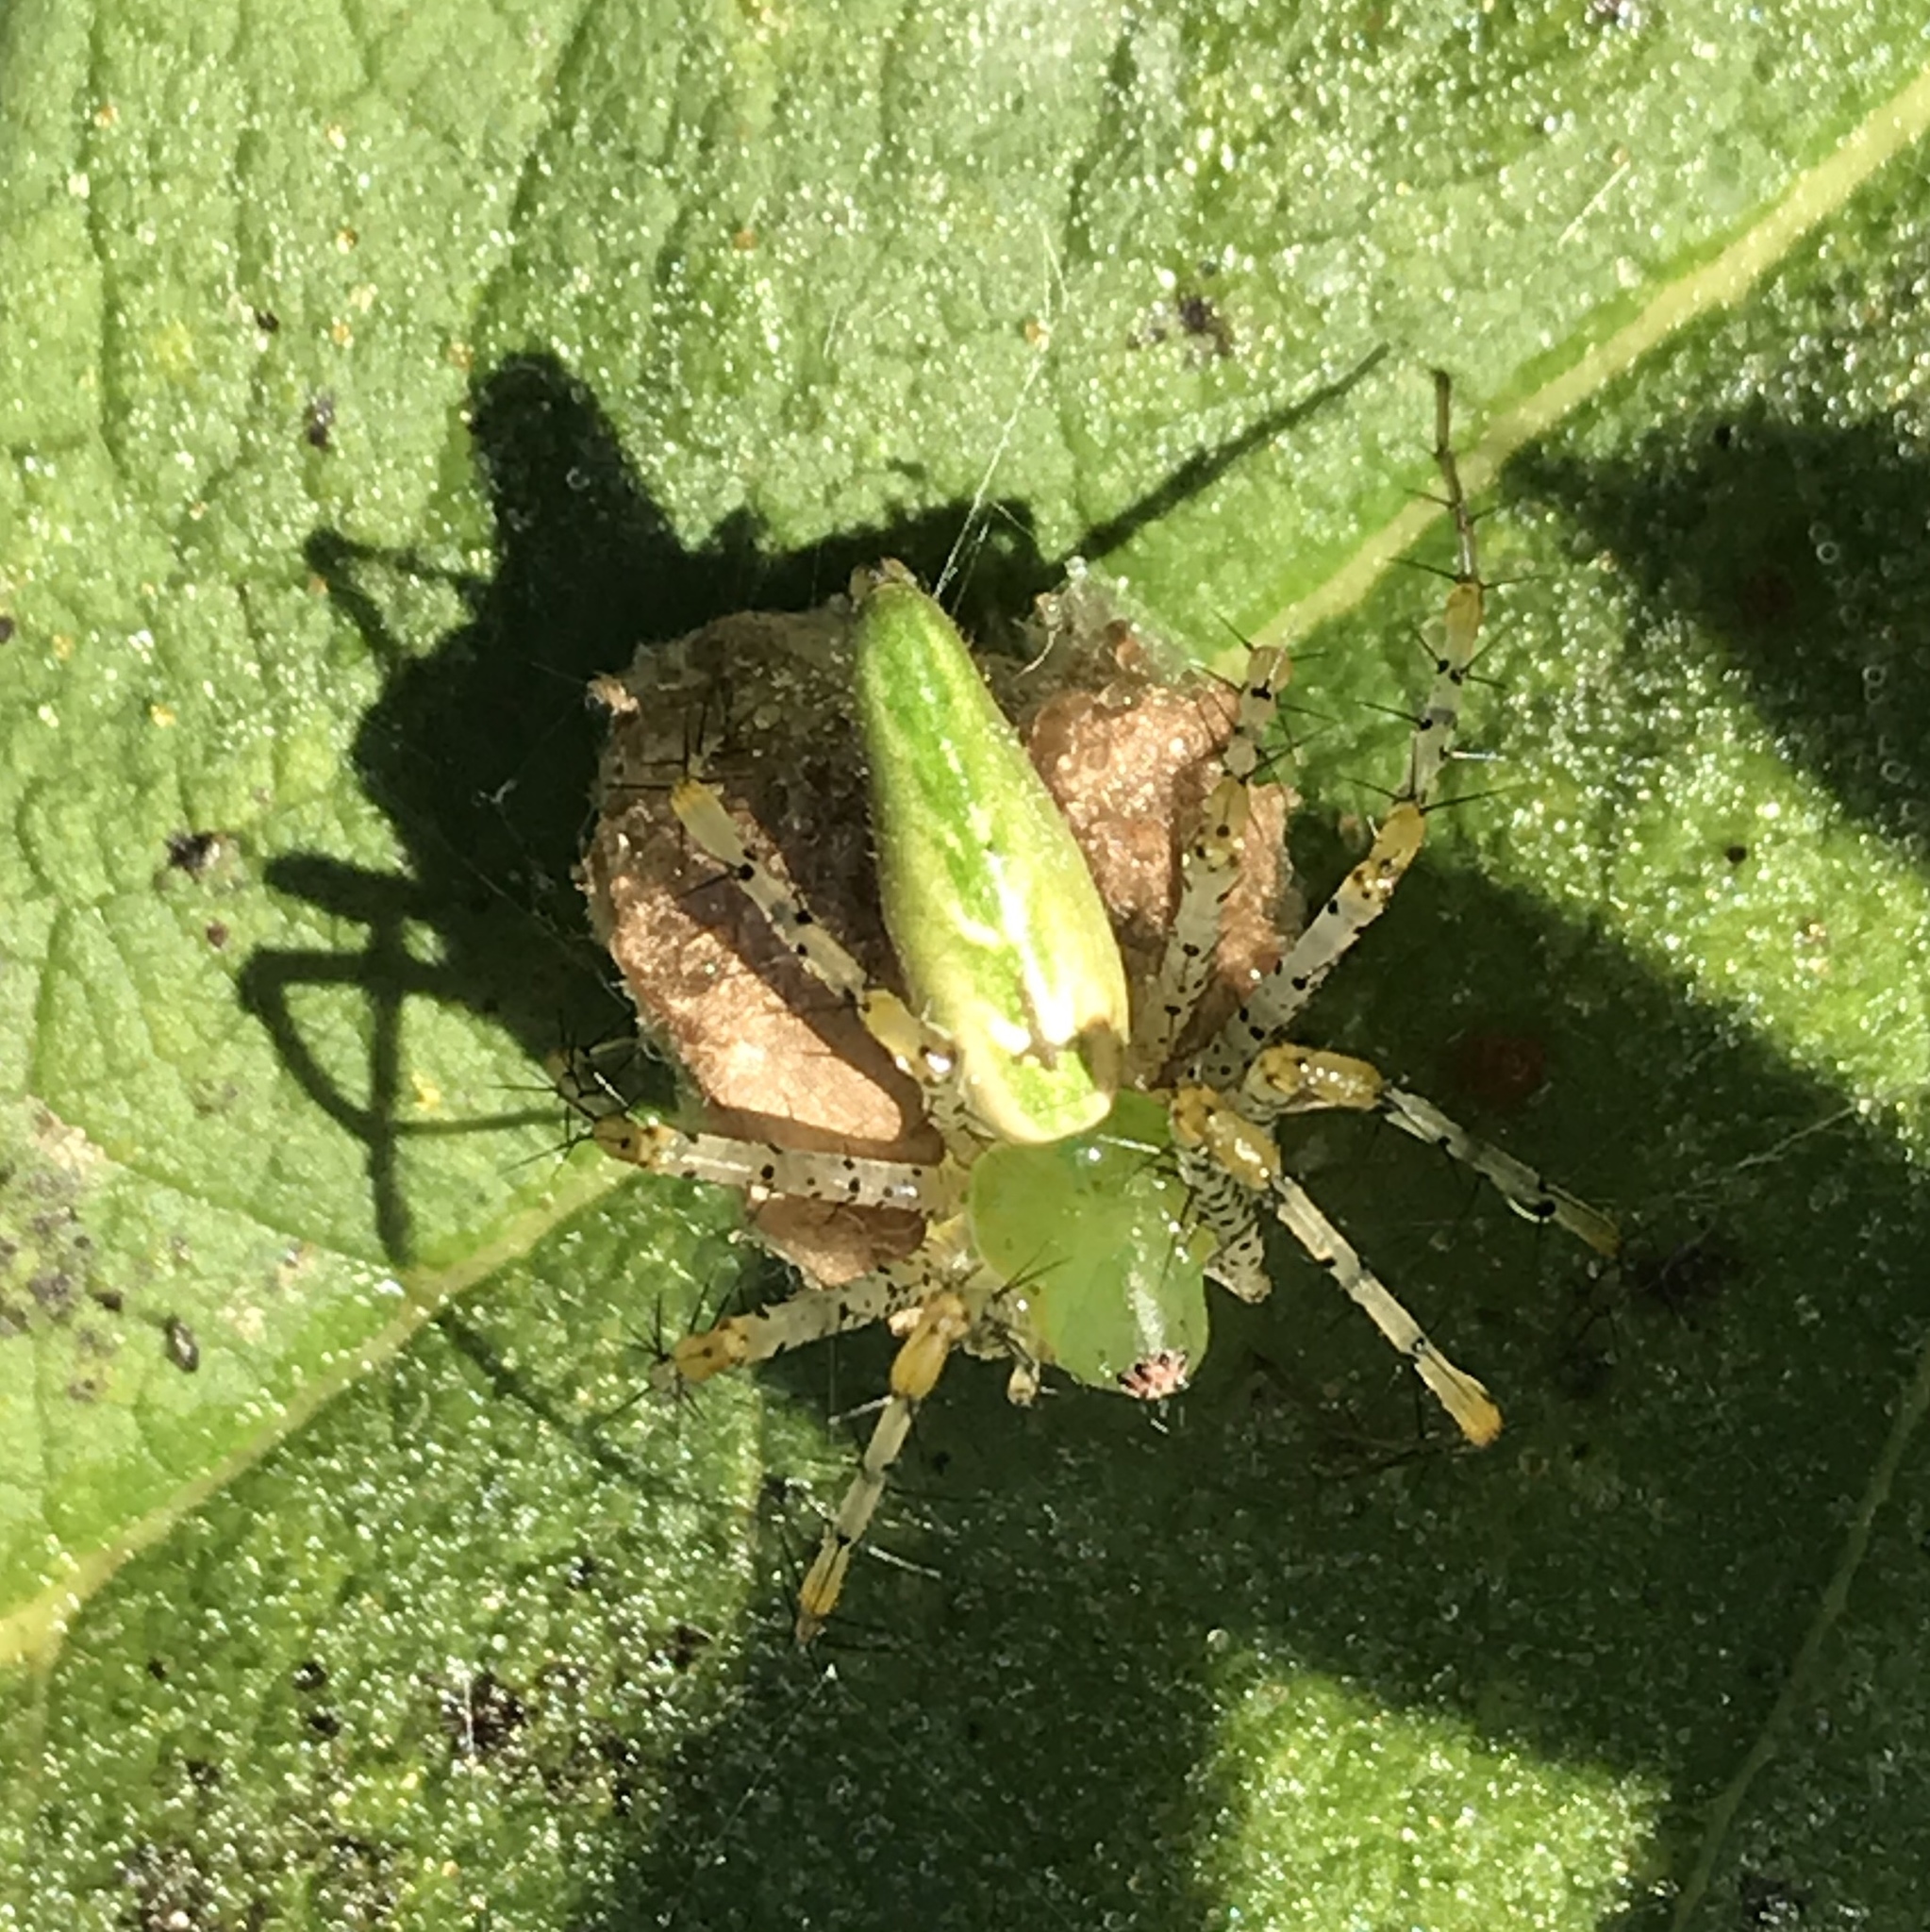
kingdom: Animalia
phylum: Arthropoda
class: Arachnida
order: Araneae
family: Oxyopidae
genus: Peucetia
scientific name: Peucetia viridans
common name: Lynx spiders
